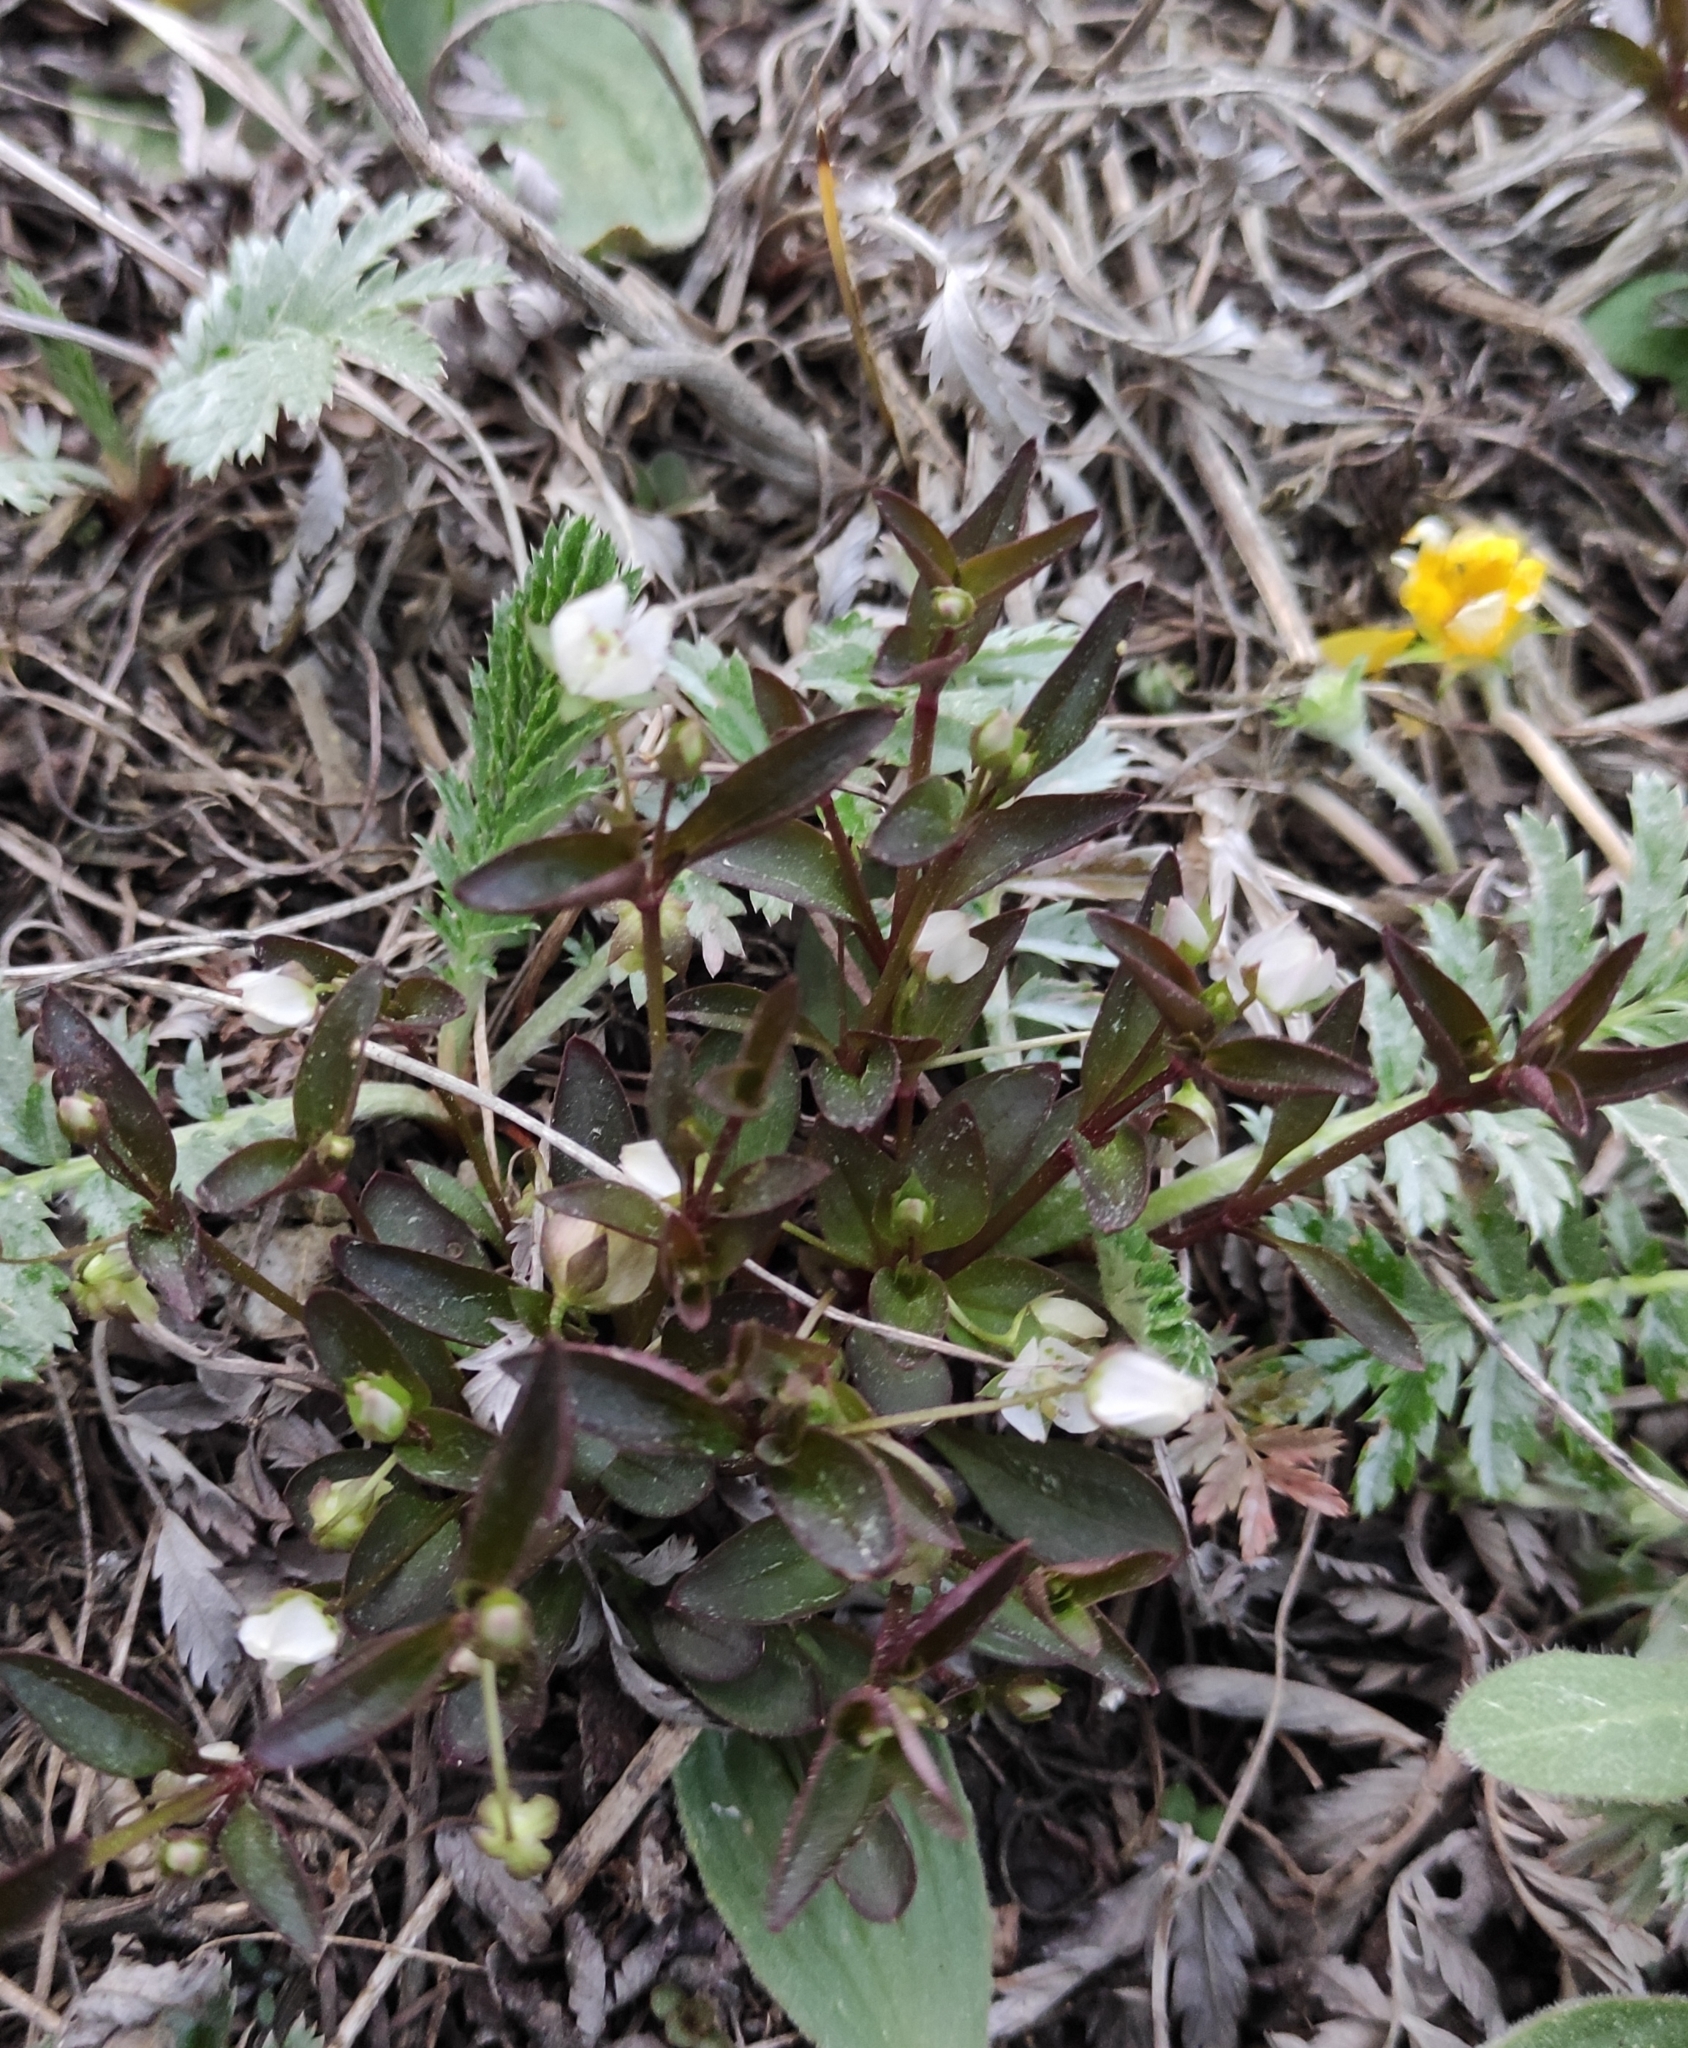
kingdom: Plantae
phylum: Tracheophyta
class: Magnoliopsida
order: Gentianales
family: Gentianaceae
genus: Swertia
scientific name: Swertia dichotoma
